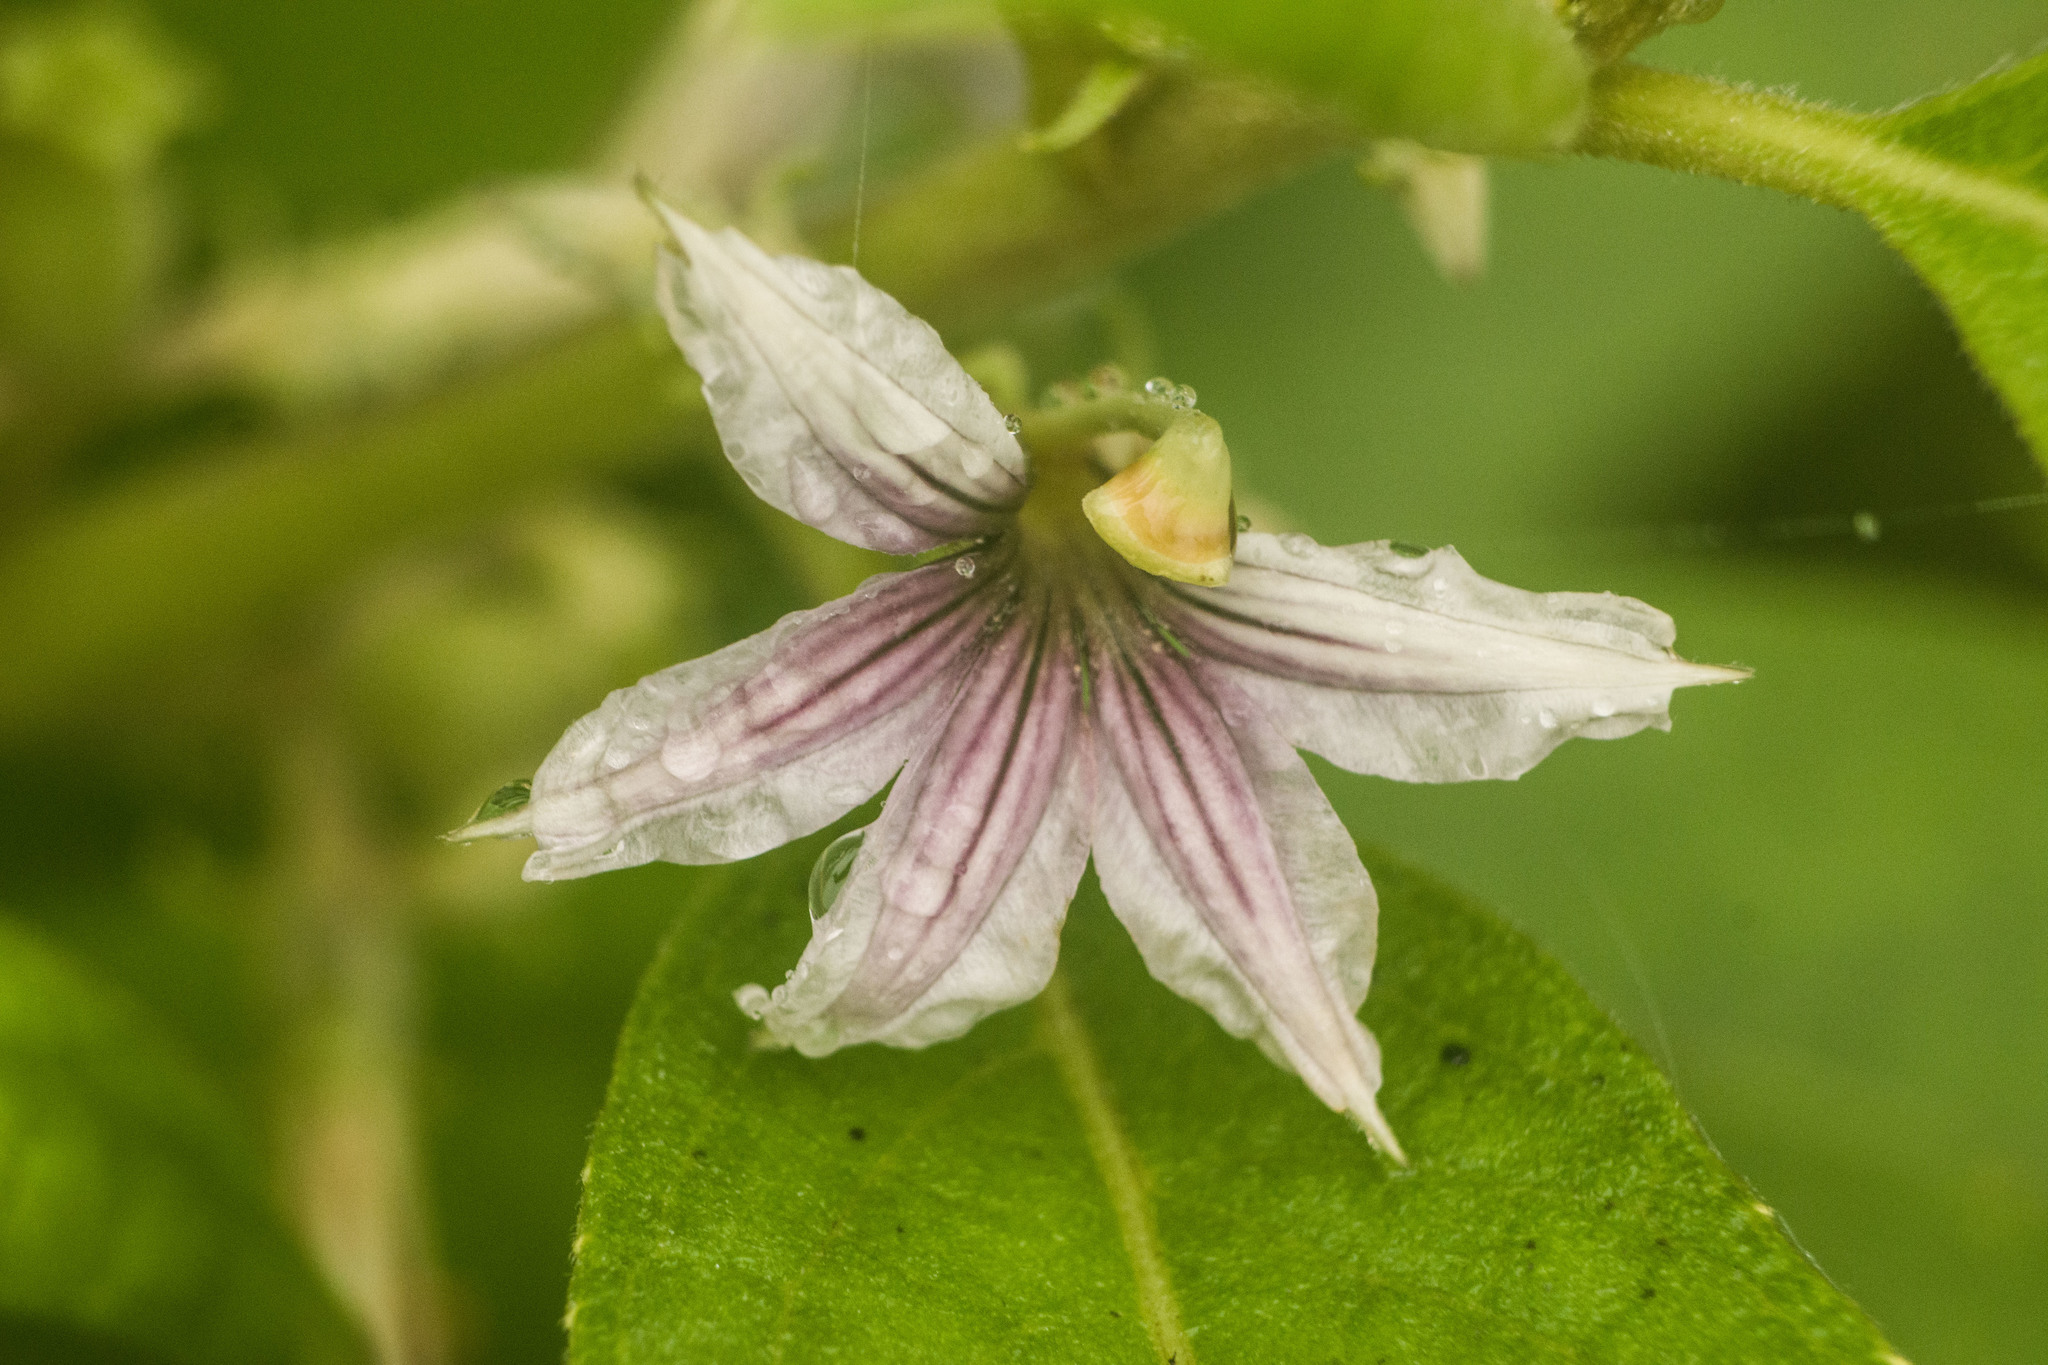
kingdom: Plantae
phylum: Tracheophyta
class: Magnoliopsida
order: Asterales
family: Goodeniaceae
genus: Scaevola
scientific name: Scaevola mollis
